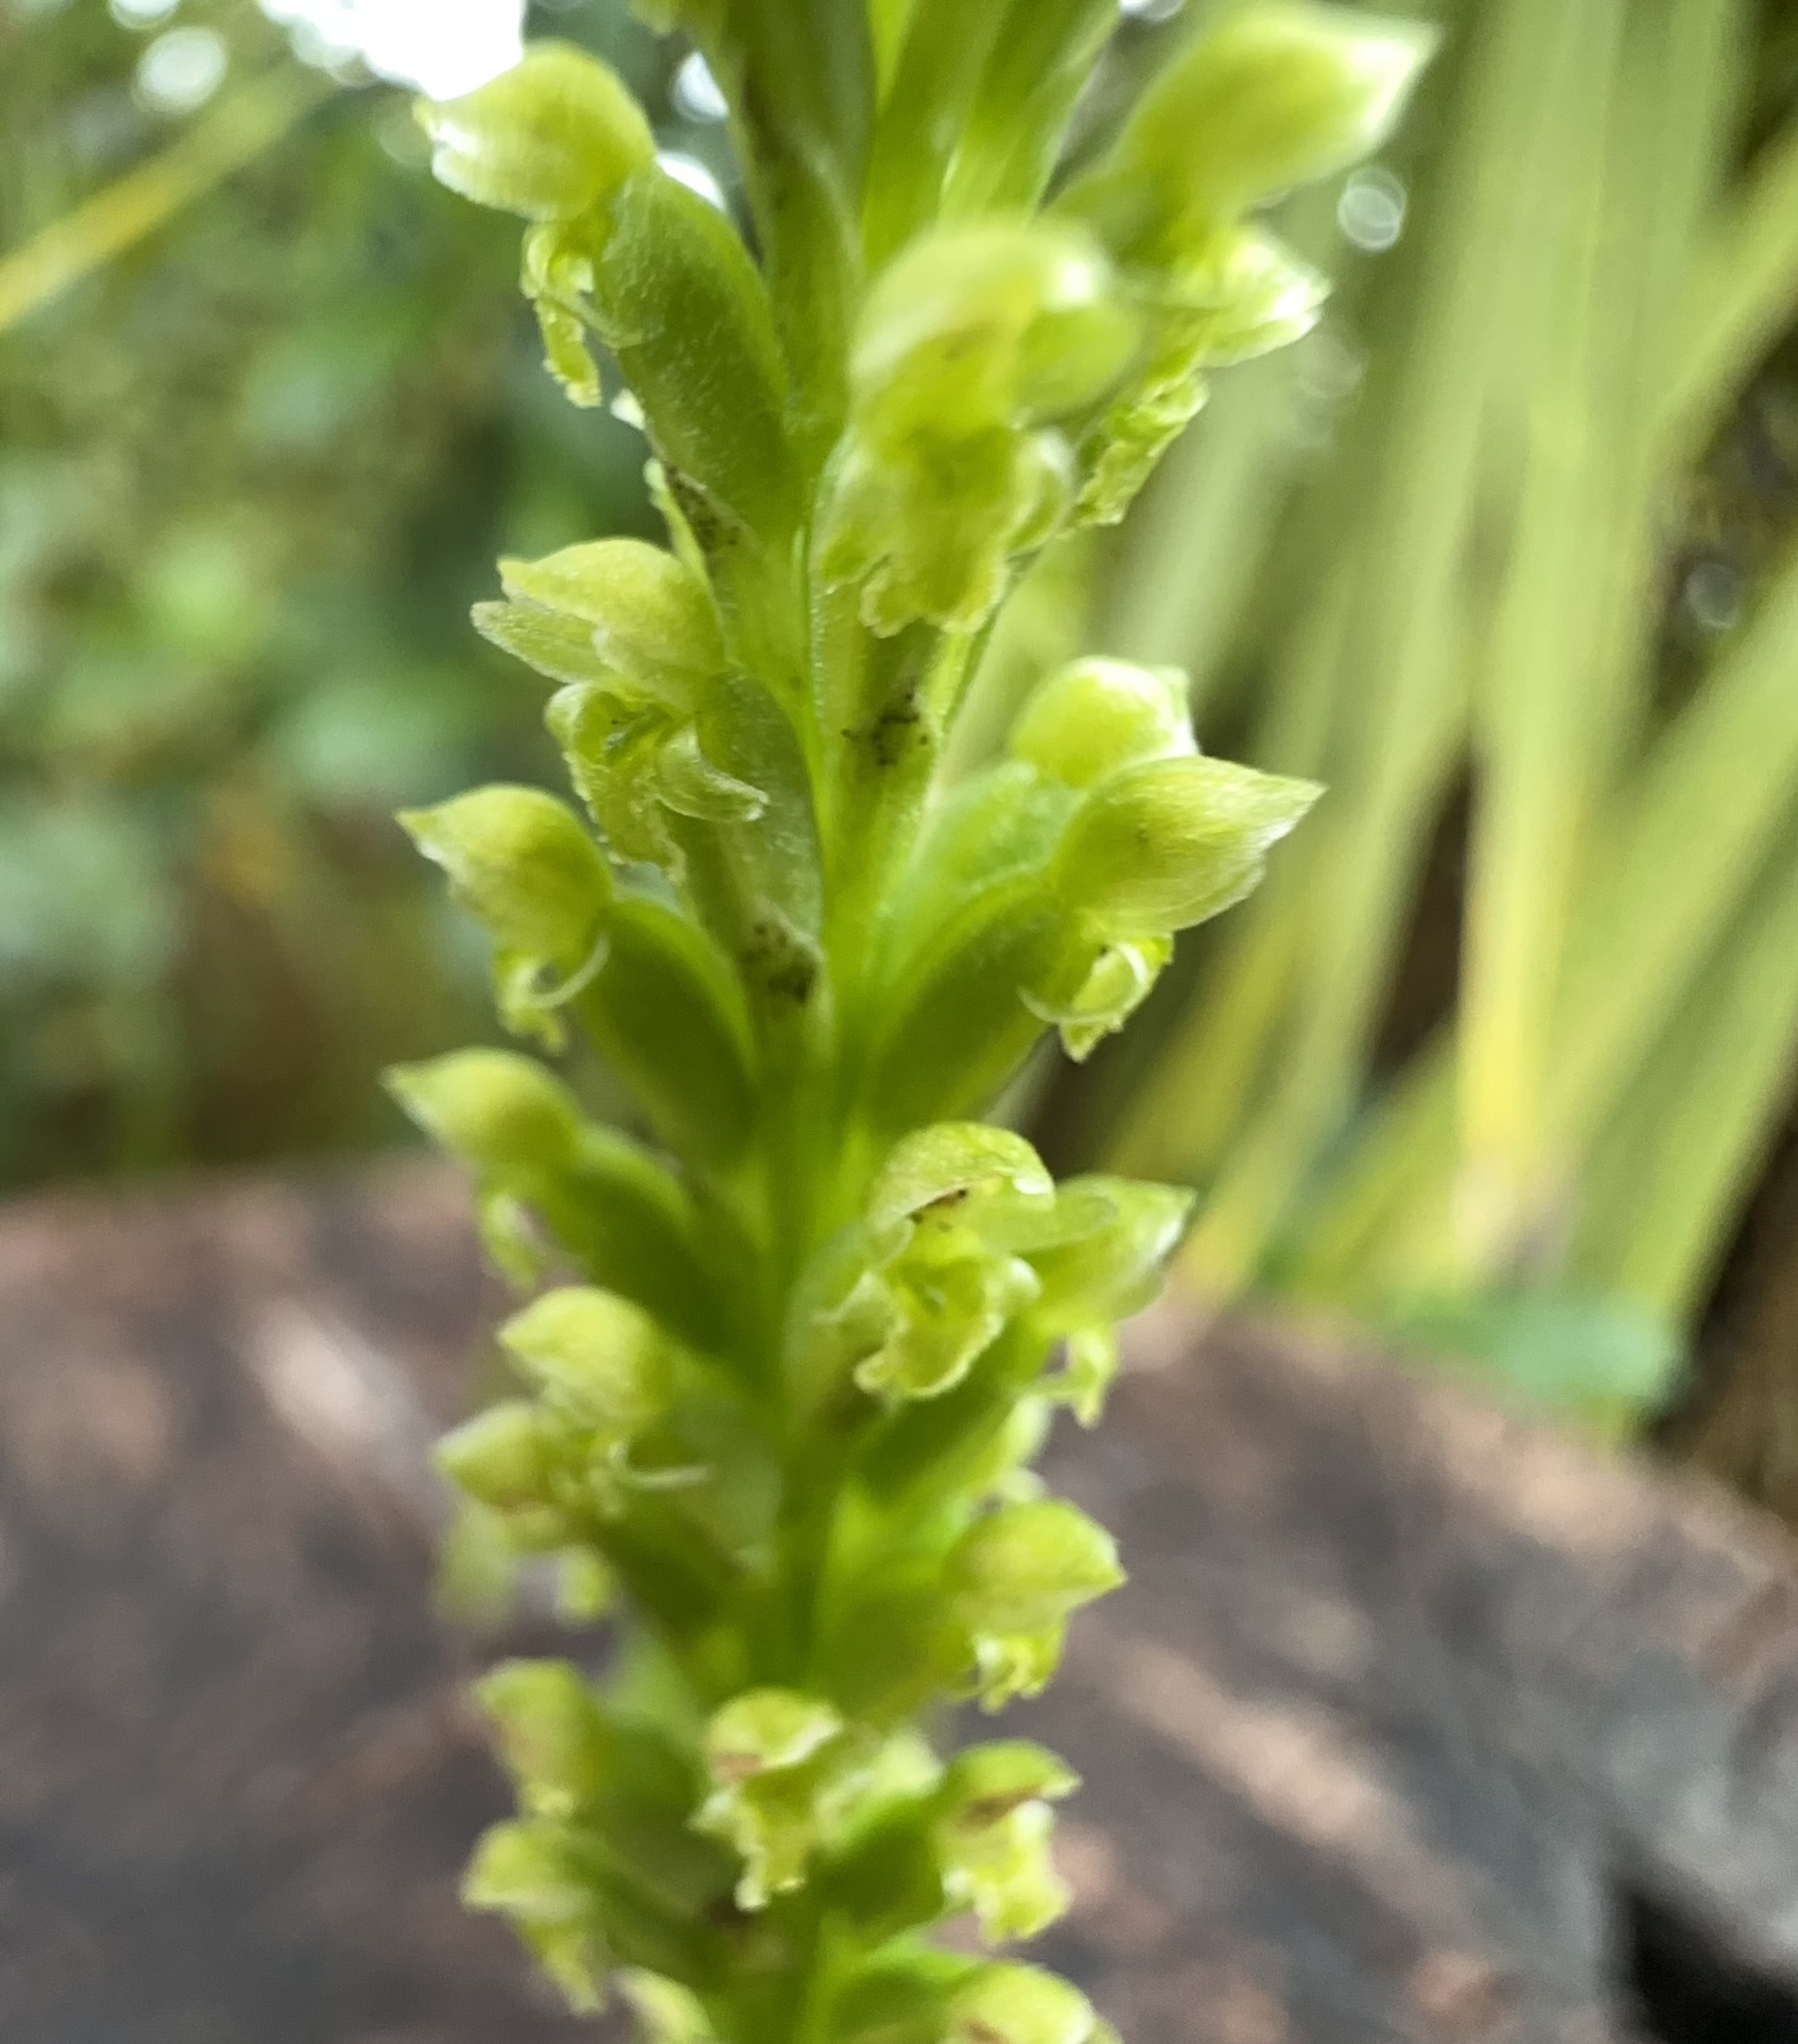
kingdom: Plantae
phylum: Tracheophyta
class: Liliopsida
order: Asparagales
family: Orchidaceae
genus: Microtis
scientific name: Microtis unifolia
